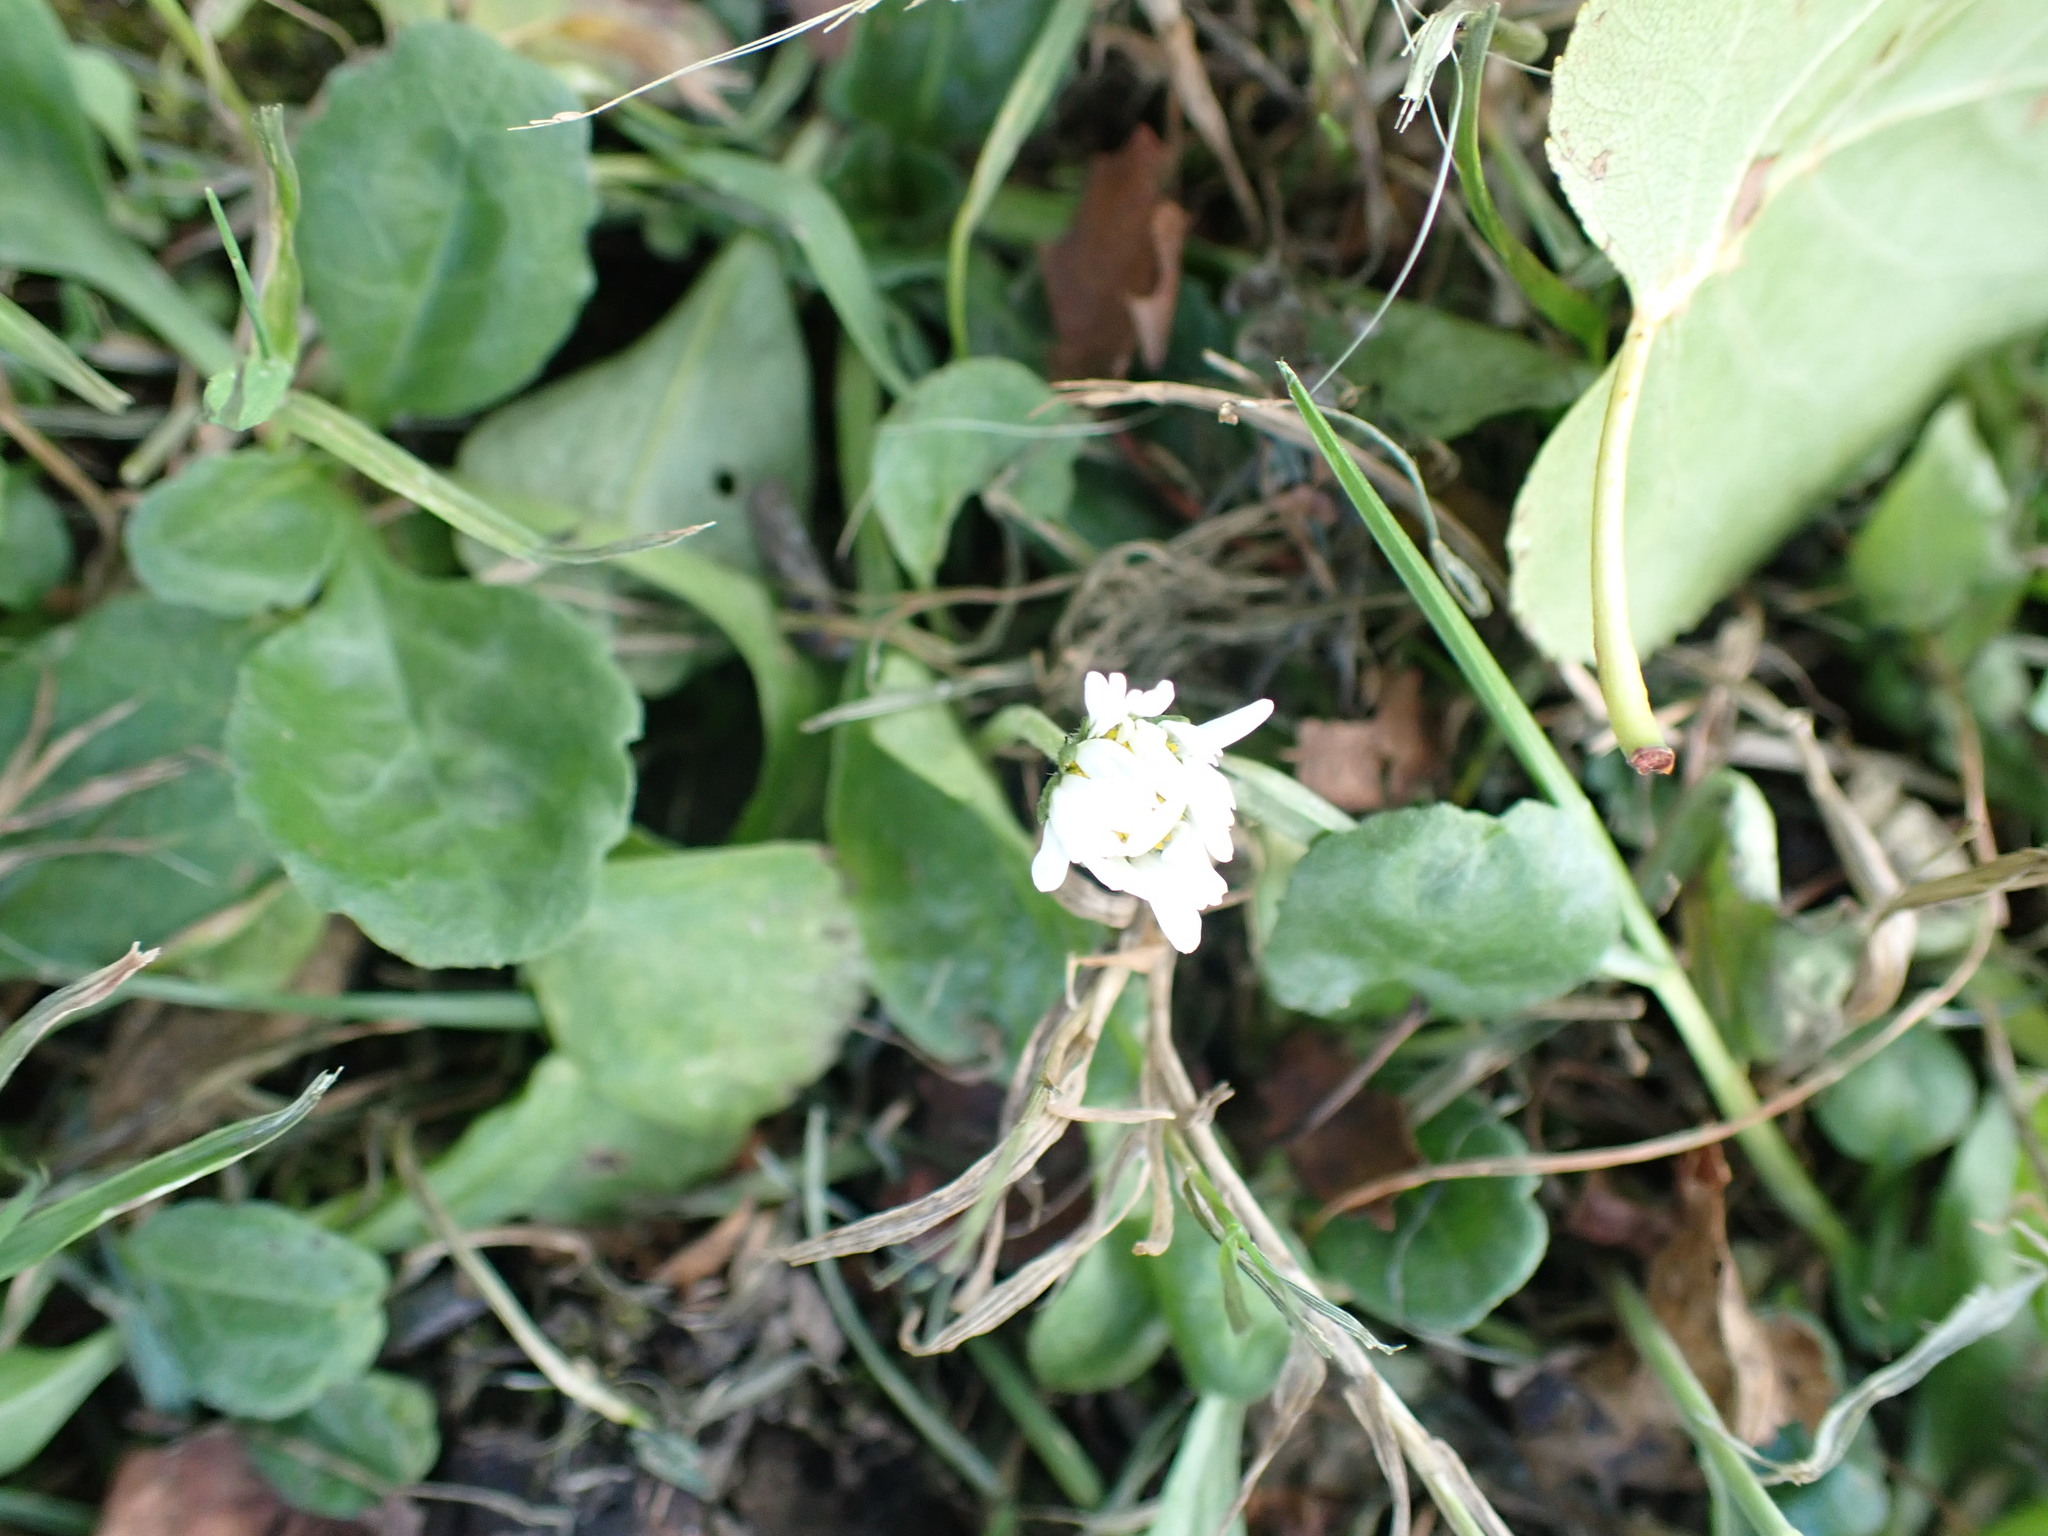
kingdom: Plantae
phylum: Tracheophyta
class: Magnoliopsida
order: Asterales
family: Asteraceae
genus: Bellis
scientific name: Bellis perennis
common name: Lawndaisy
